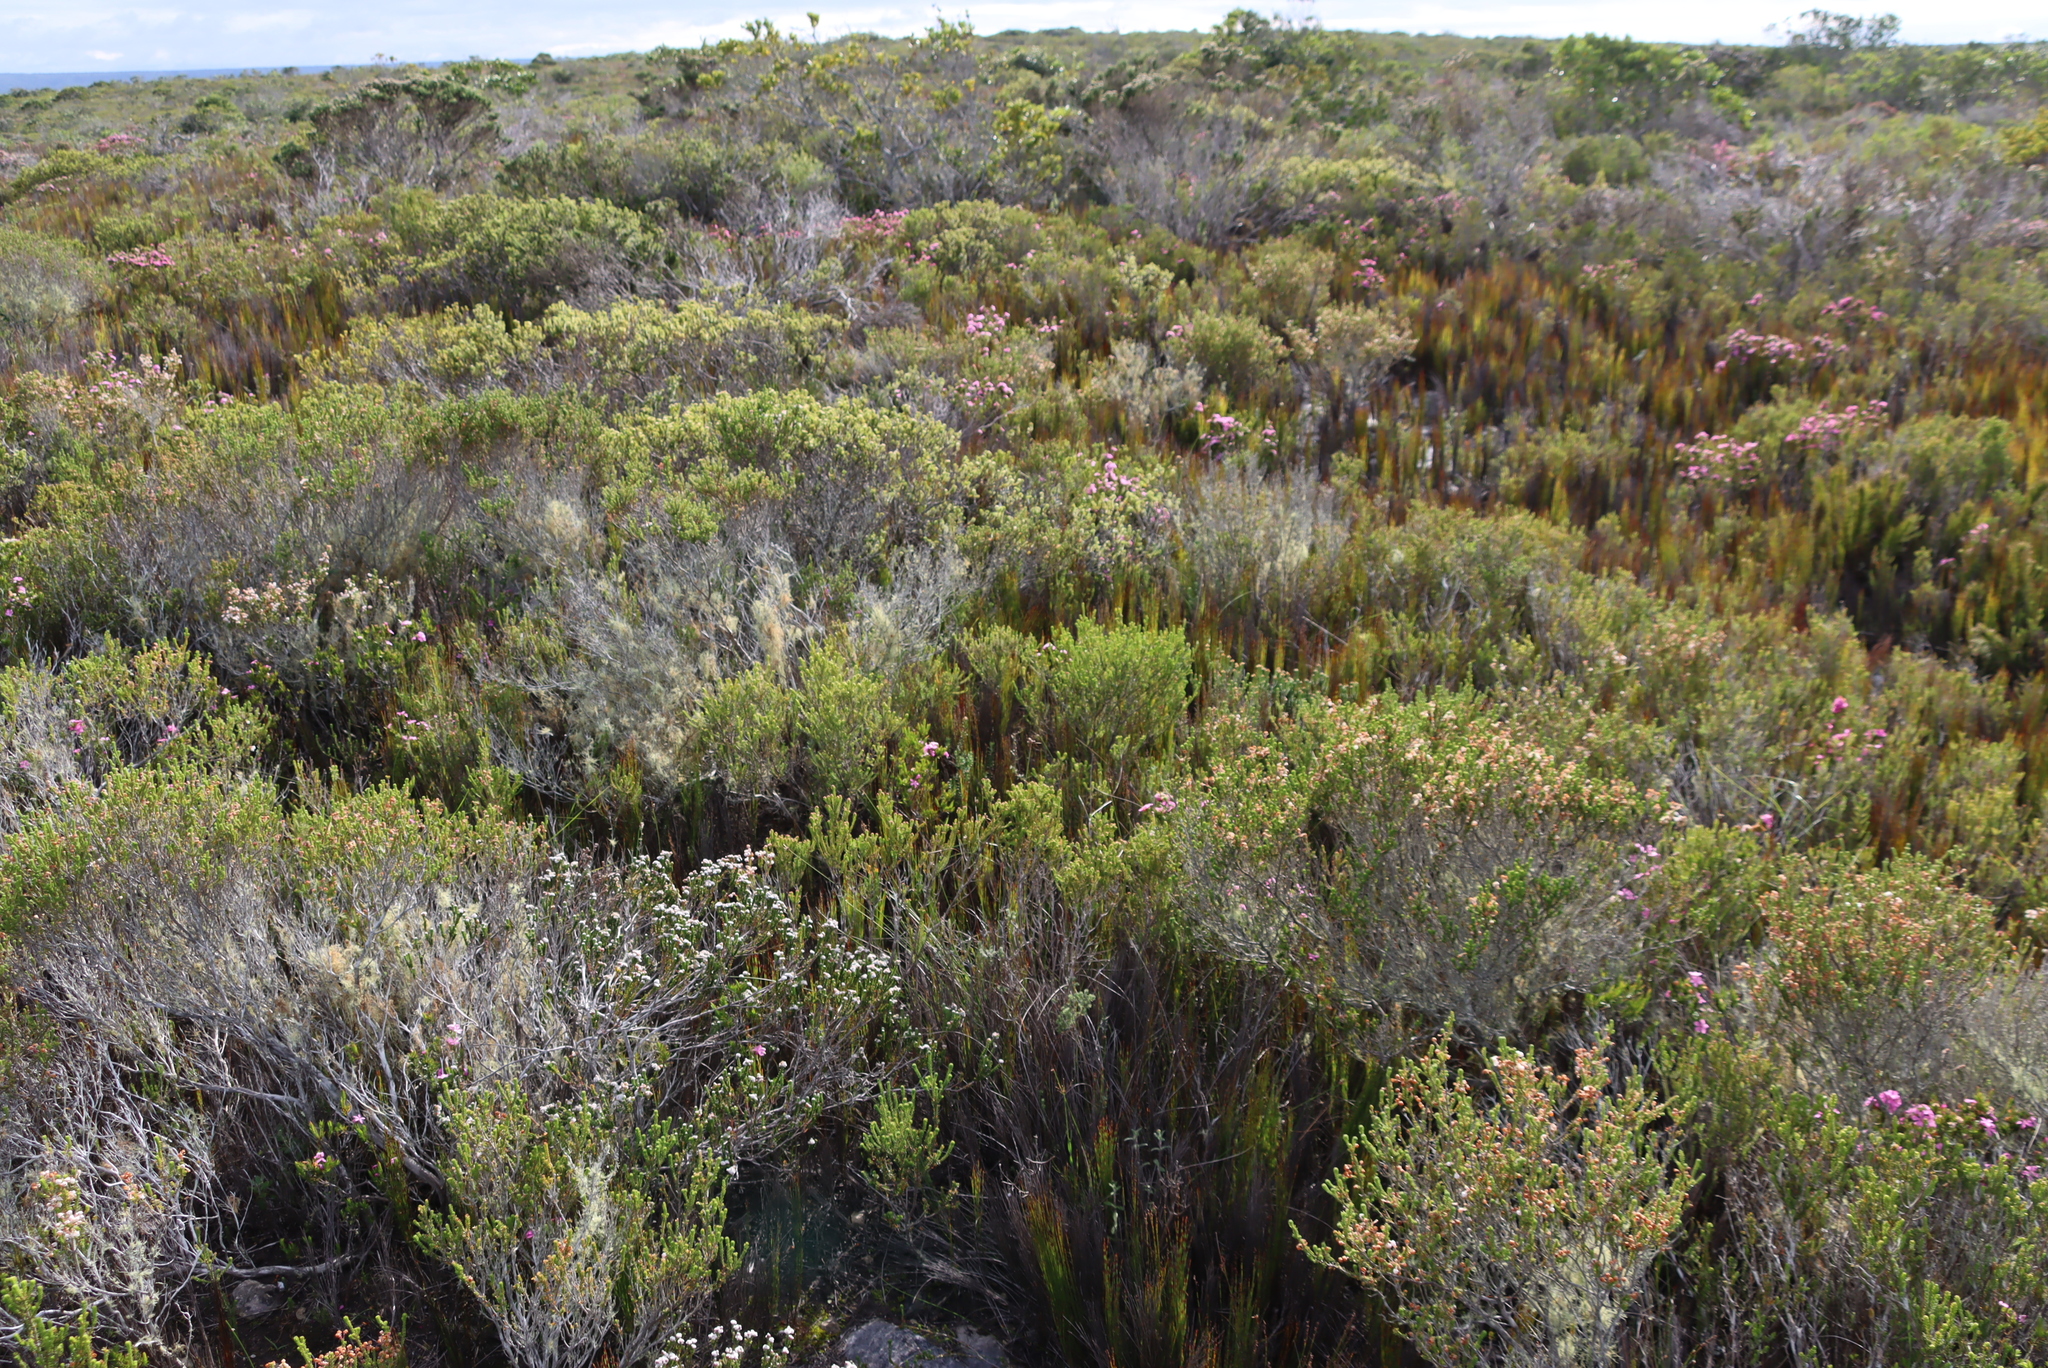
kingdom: Plantae
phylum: Tracheophyta
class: Magnoliopsida
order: Ericales
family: Ericaceae
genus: Erica
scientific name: Erica spectabilis
